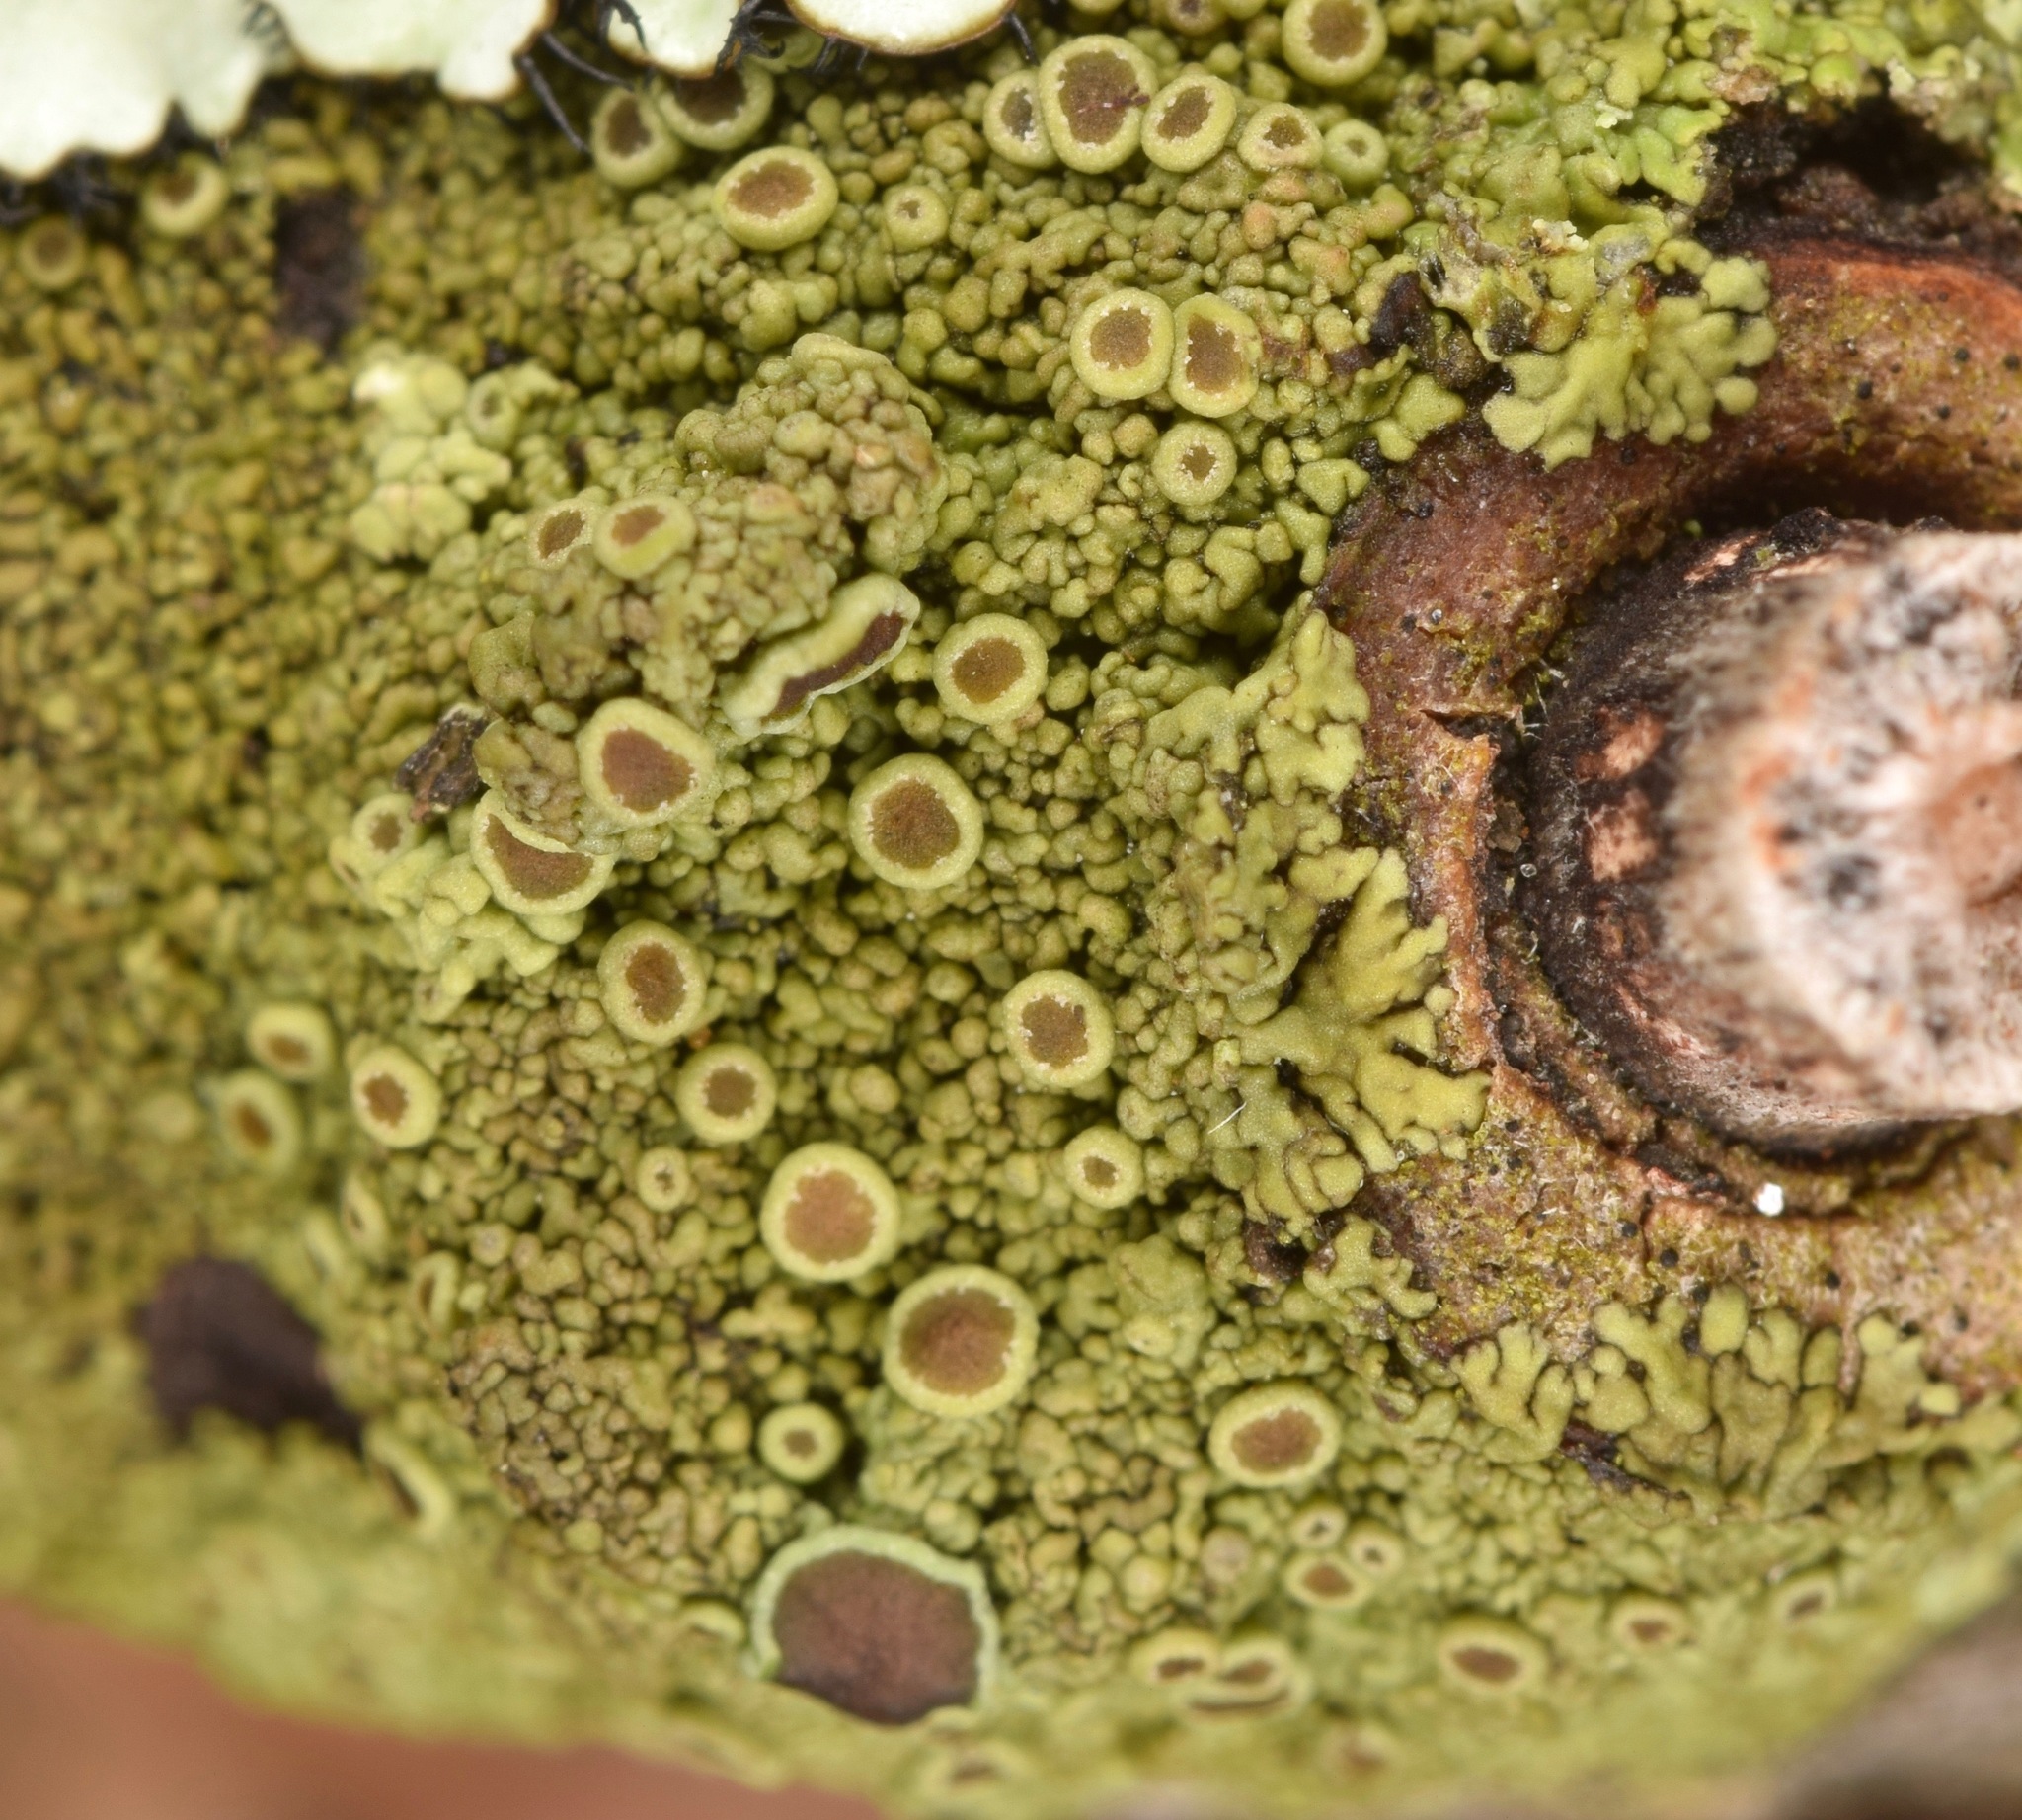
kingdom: Fungi
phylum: Ascomycota
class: Lecanoromycetes
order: Caliciales
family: Physciaceae
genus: Hyperphyscia
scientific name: Hyperphyscia syncolla
